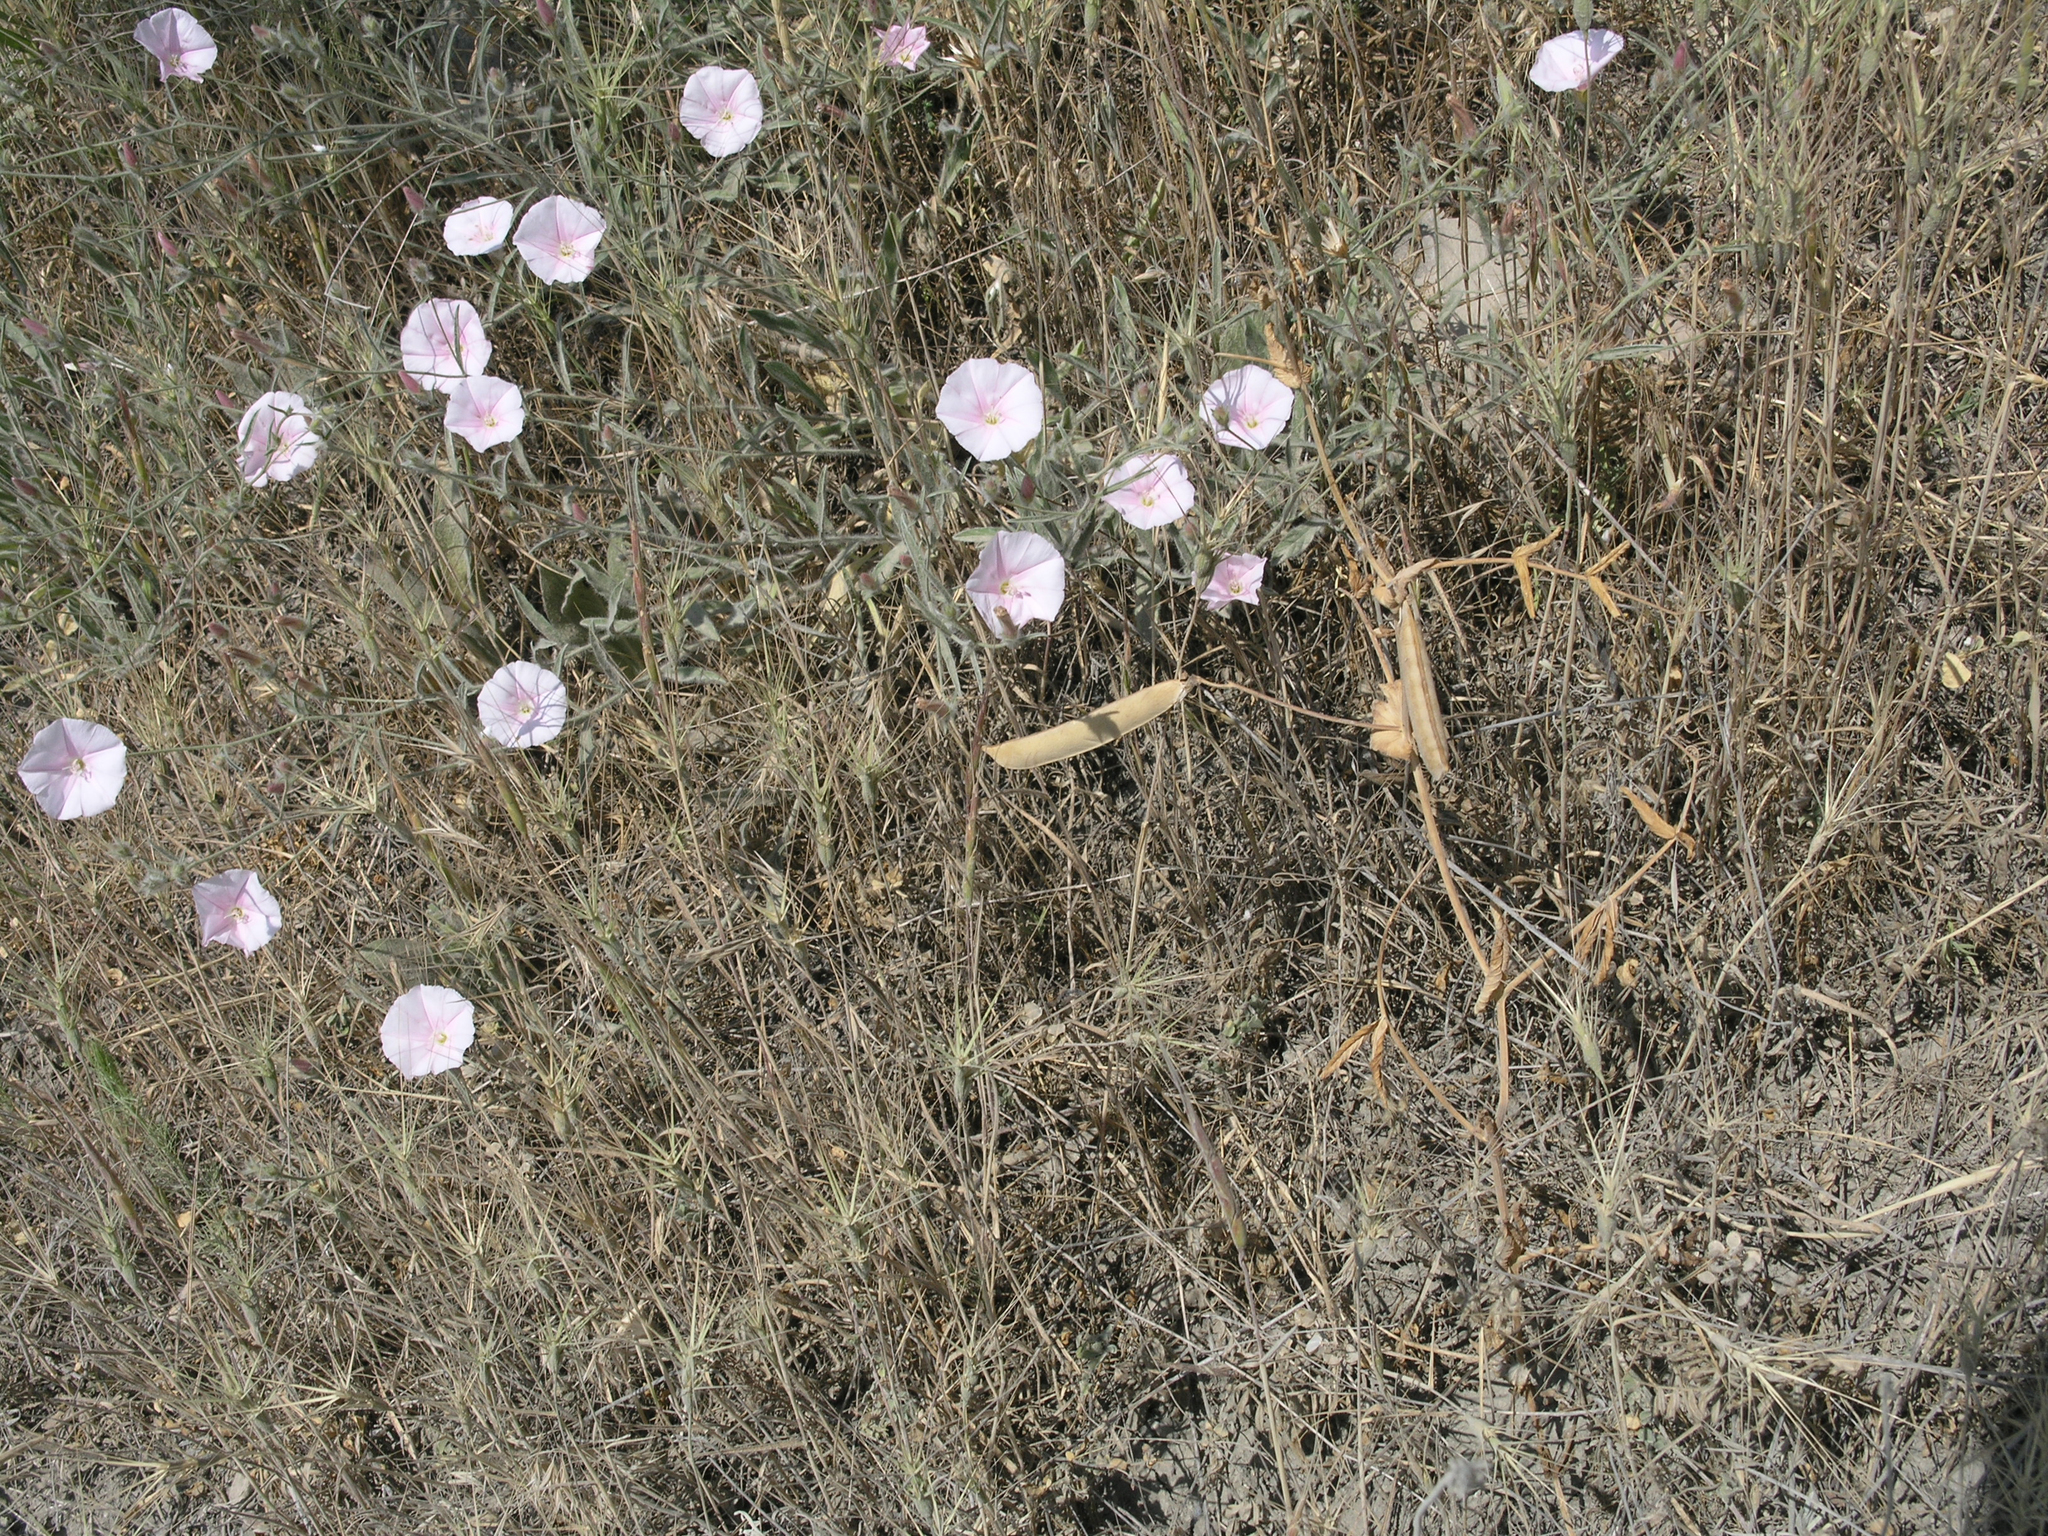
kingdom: Plantae
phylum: Tracheophyta
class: Magnoliopsida
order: Solanales
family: Convolvulaceae
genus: Convolvulus
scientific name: Convolvulus cantabrica
